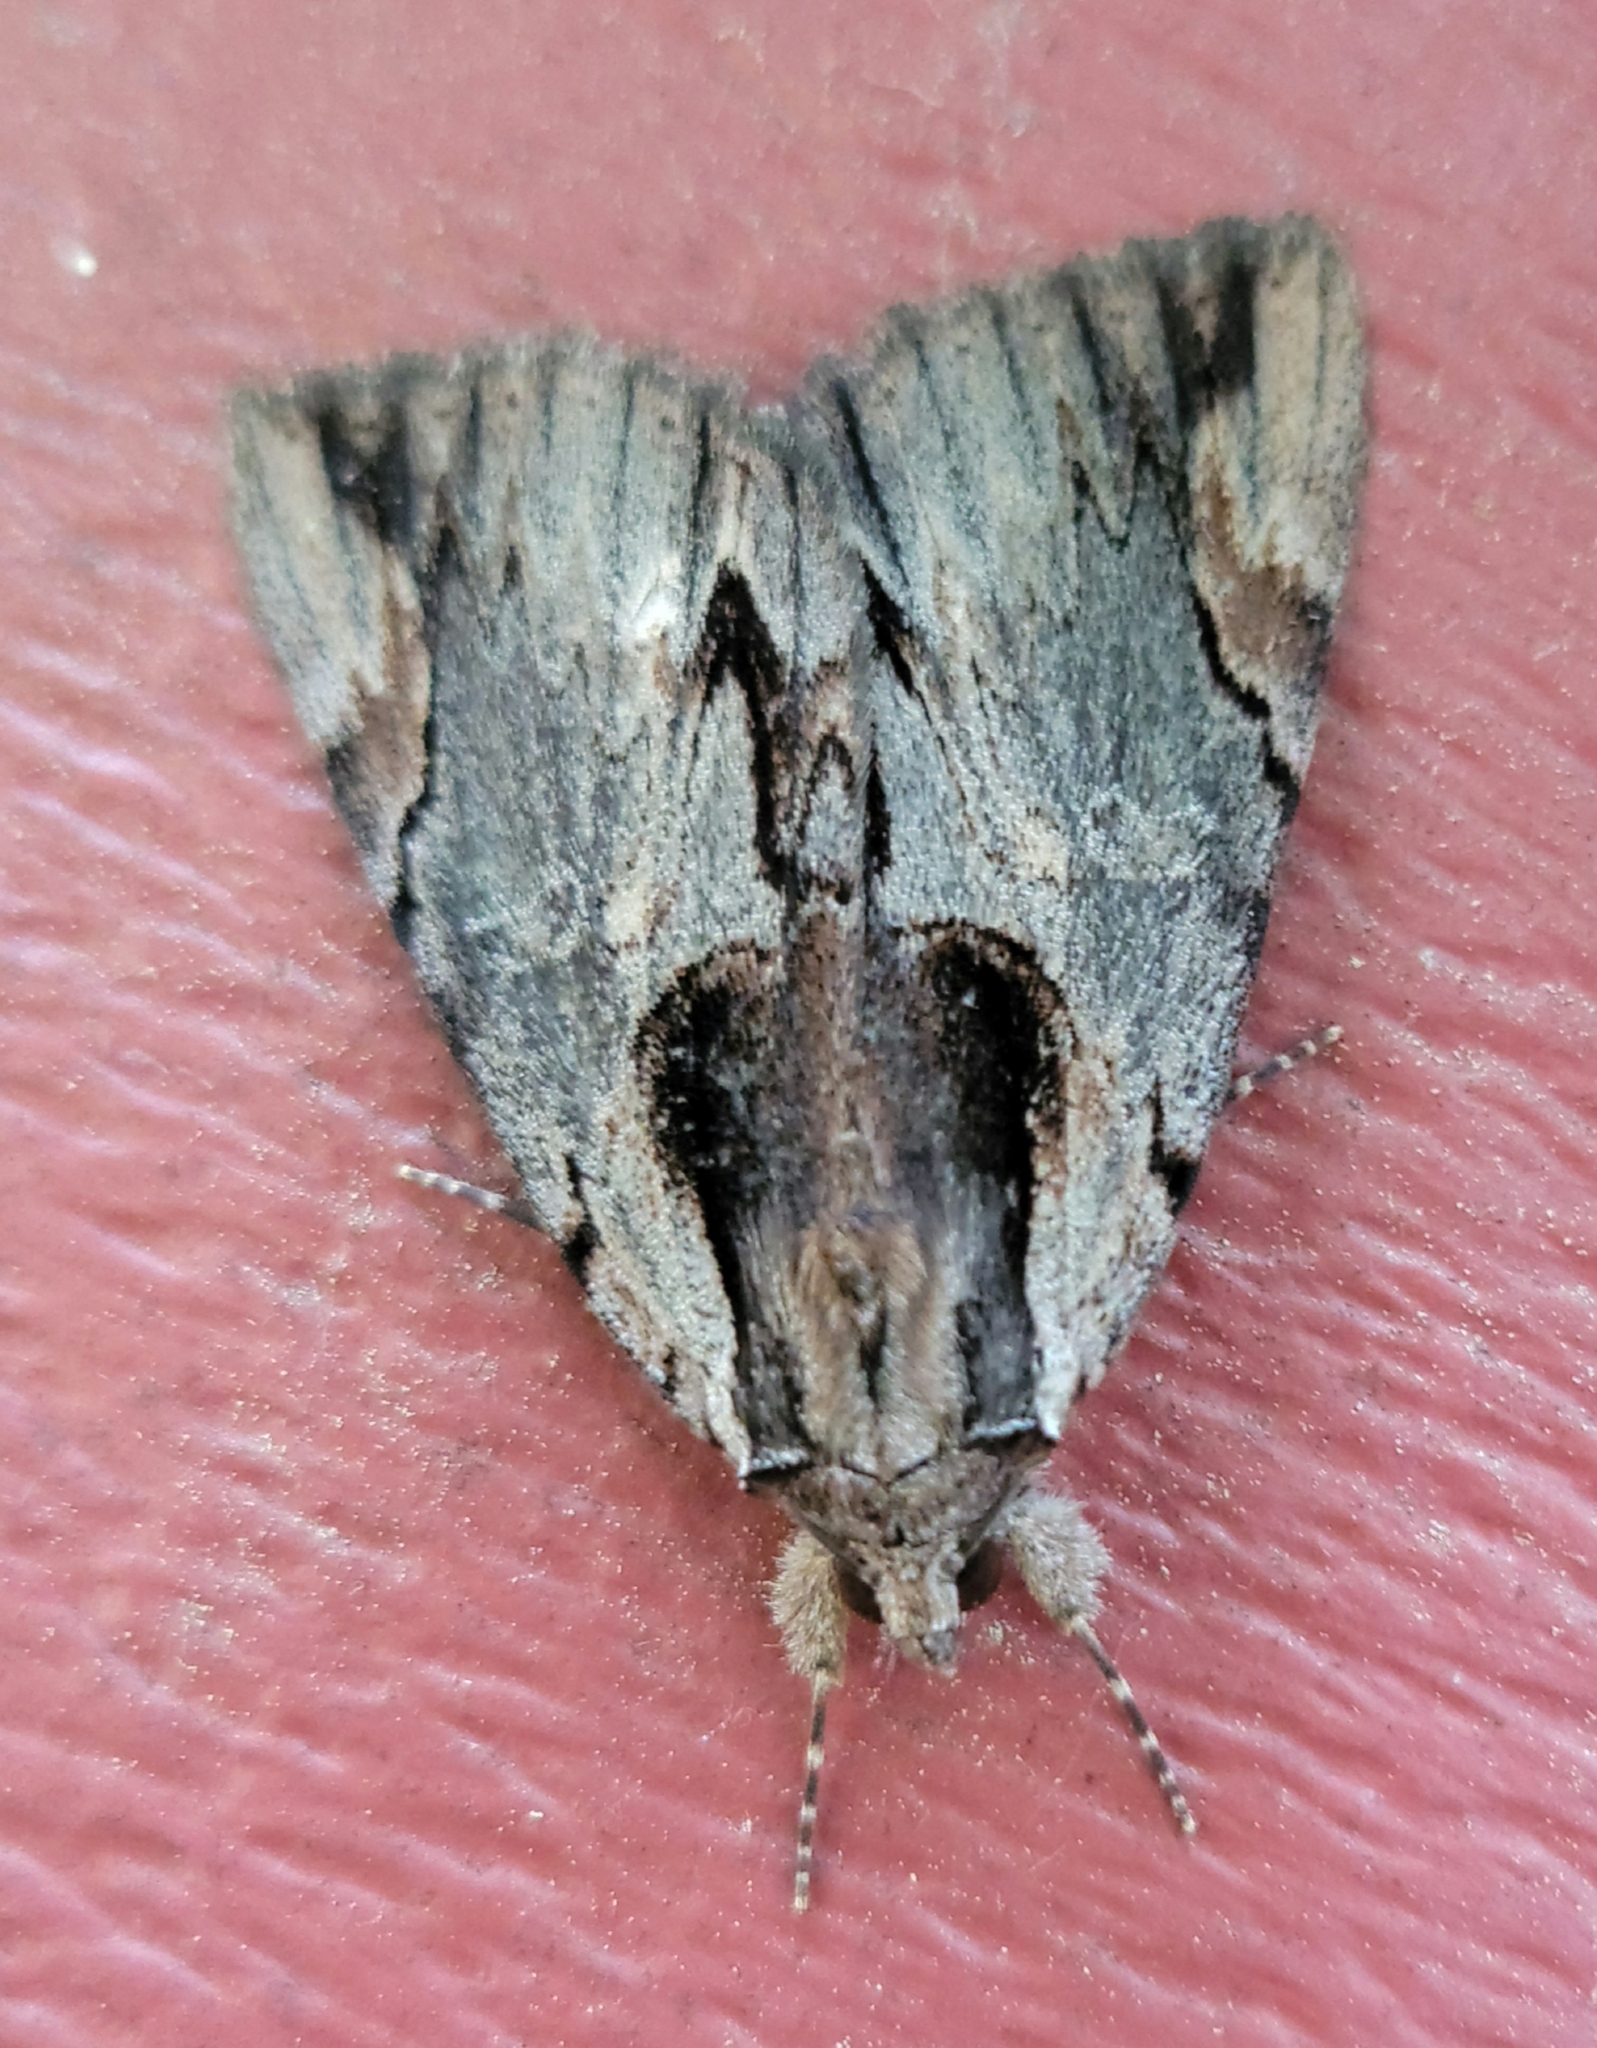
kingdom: Animalia
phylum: Arthropoda
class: Insecta
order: Lepidoptera
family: Erebidae
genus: Catocala
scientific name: Catocala ultronia
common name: Ultronia underwing
